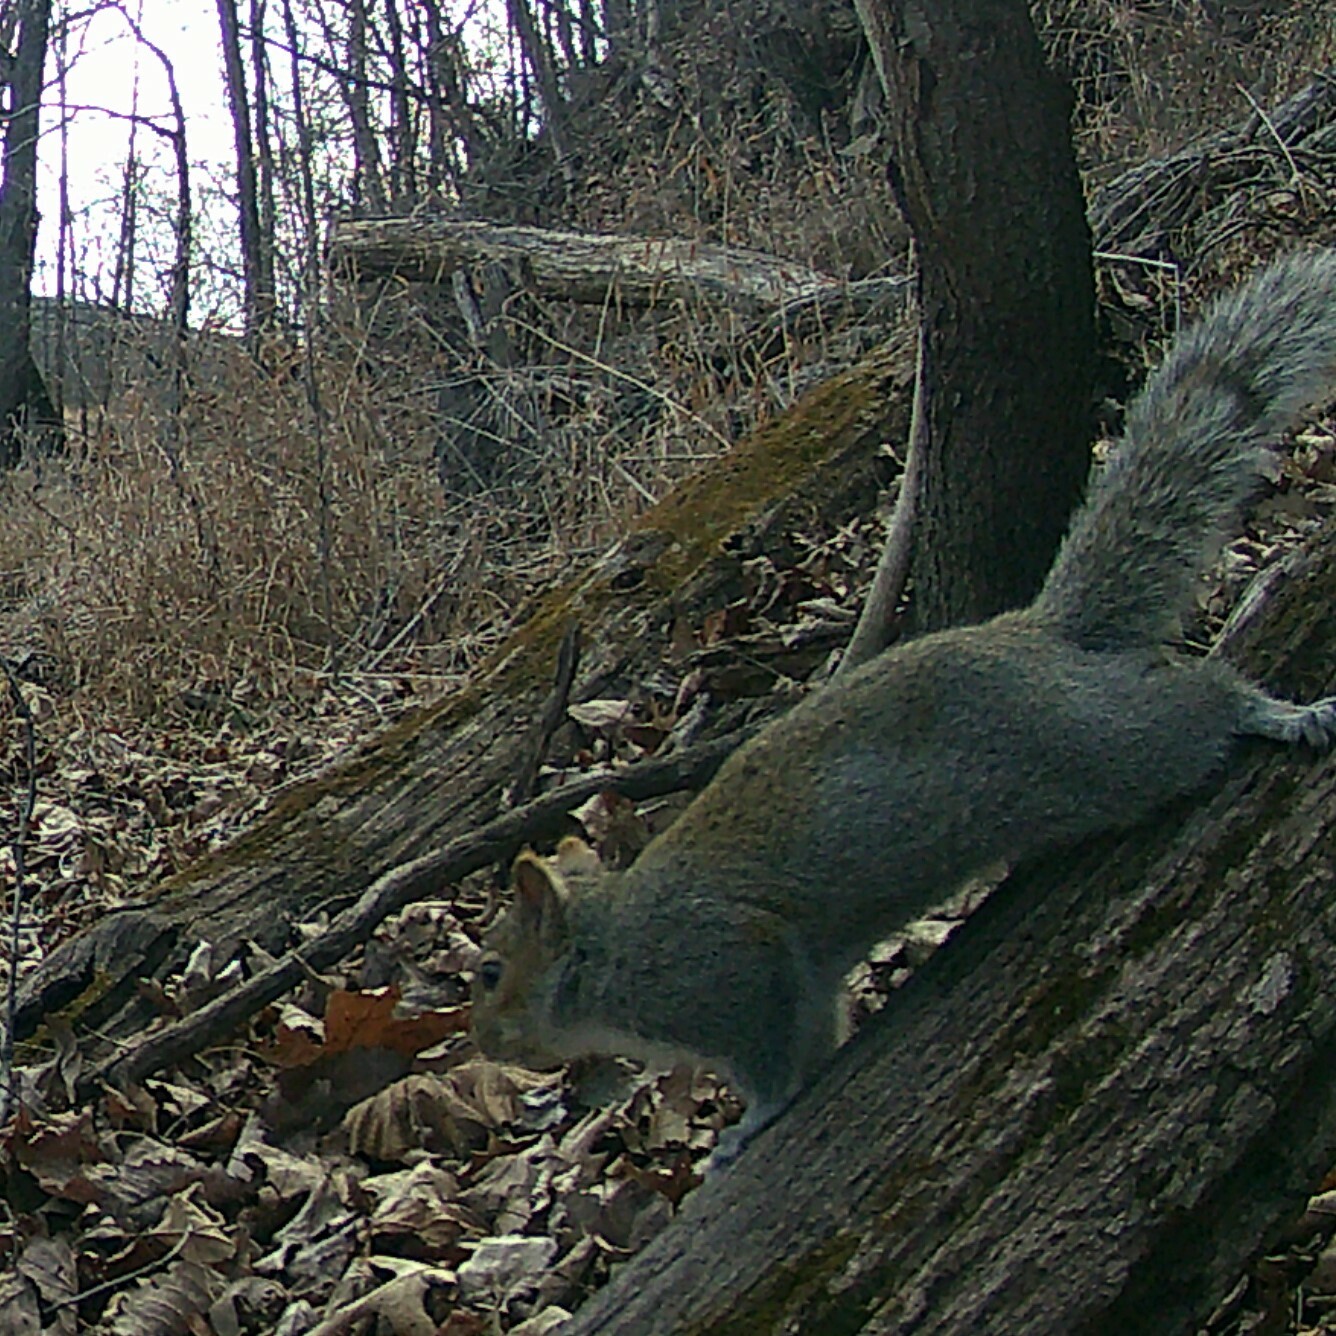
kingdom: Animalia
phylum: Chordata
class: Mammalia
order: Rodentia
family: Sciuridae
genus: Sciurus
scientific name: Sciurus carolinensis
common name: Eastern gray squirrel
